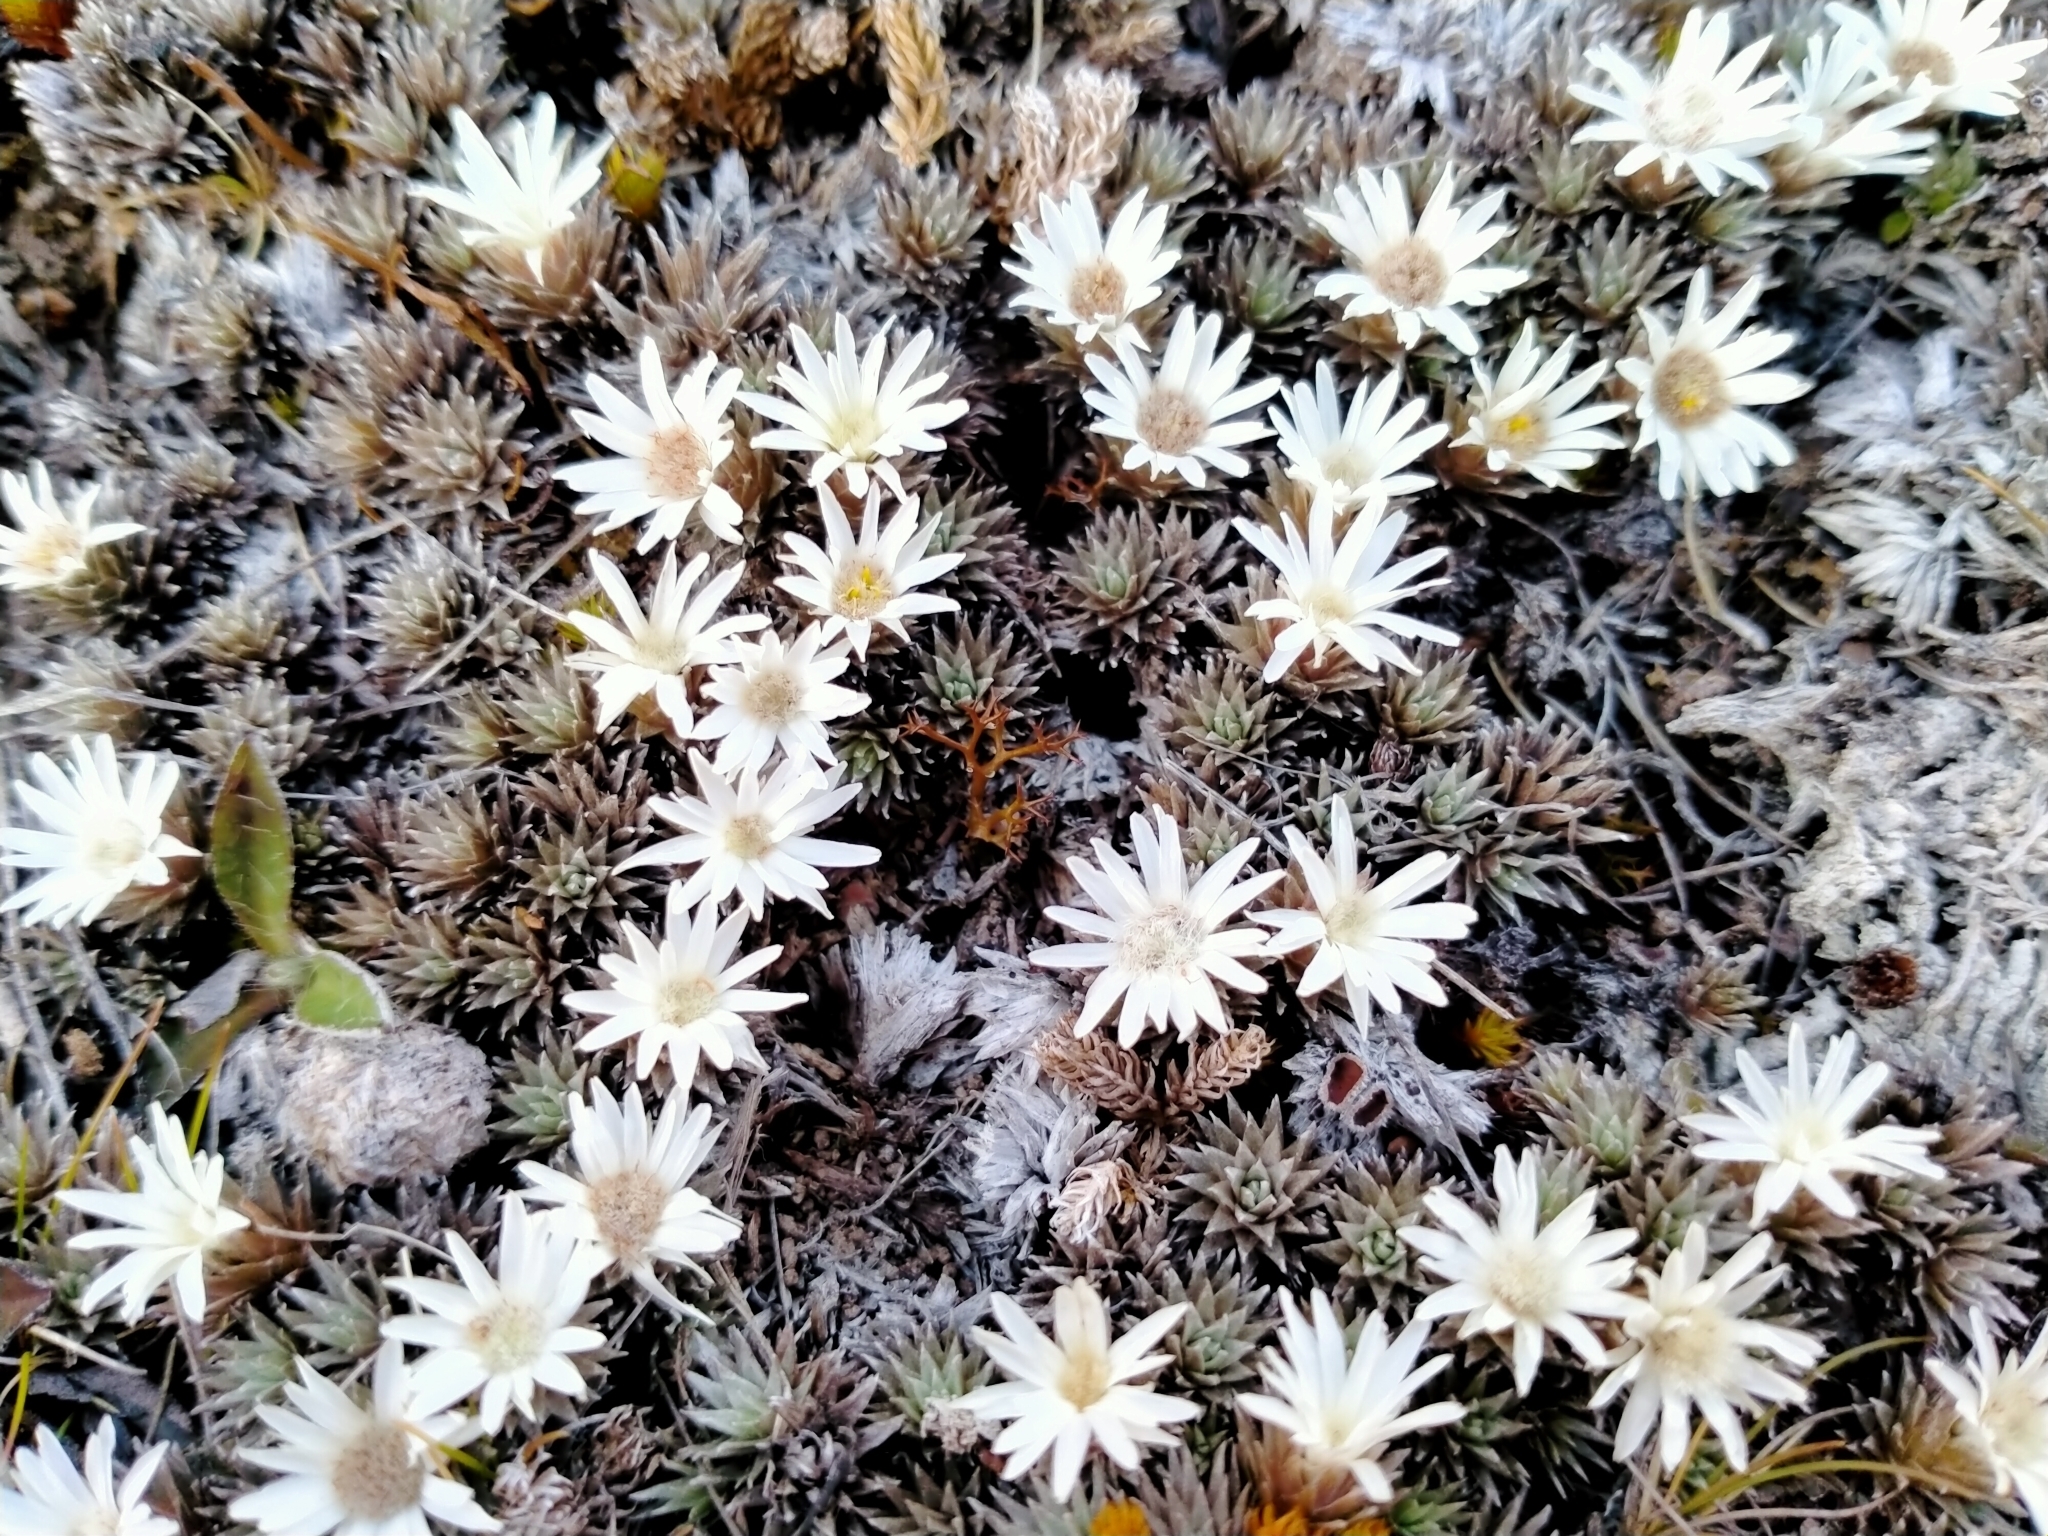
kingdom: Plantae
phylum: Tracheophyta
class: Magnoliopsida
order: Asterales
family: Asteraceae
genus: Raoulia
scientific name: Raoulia grandiflora
